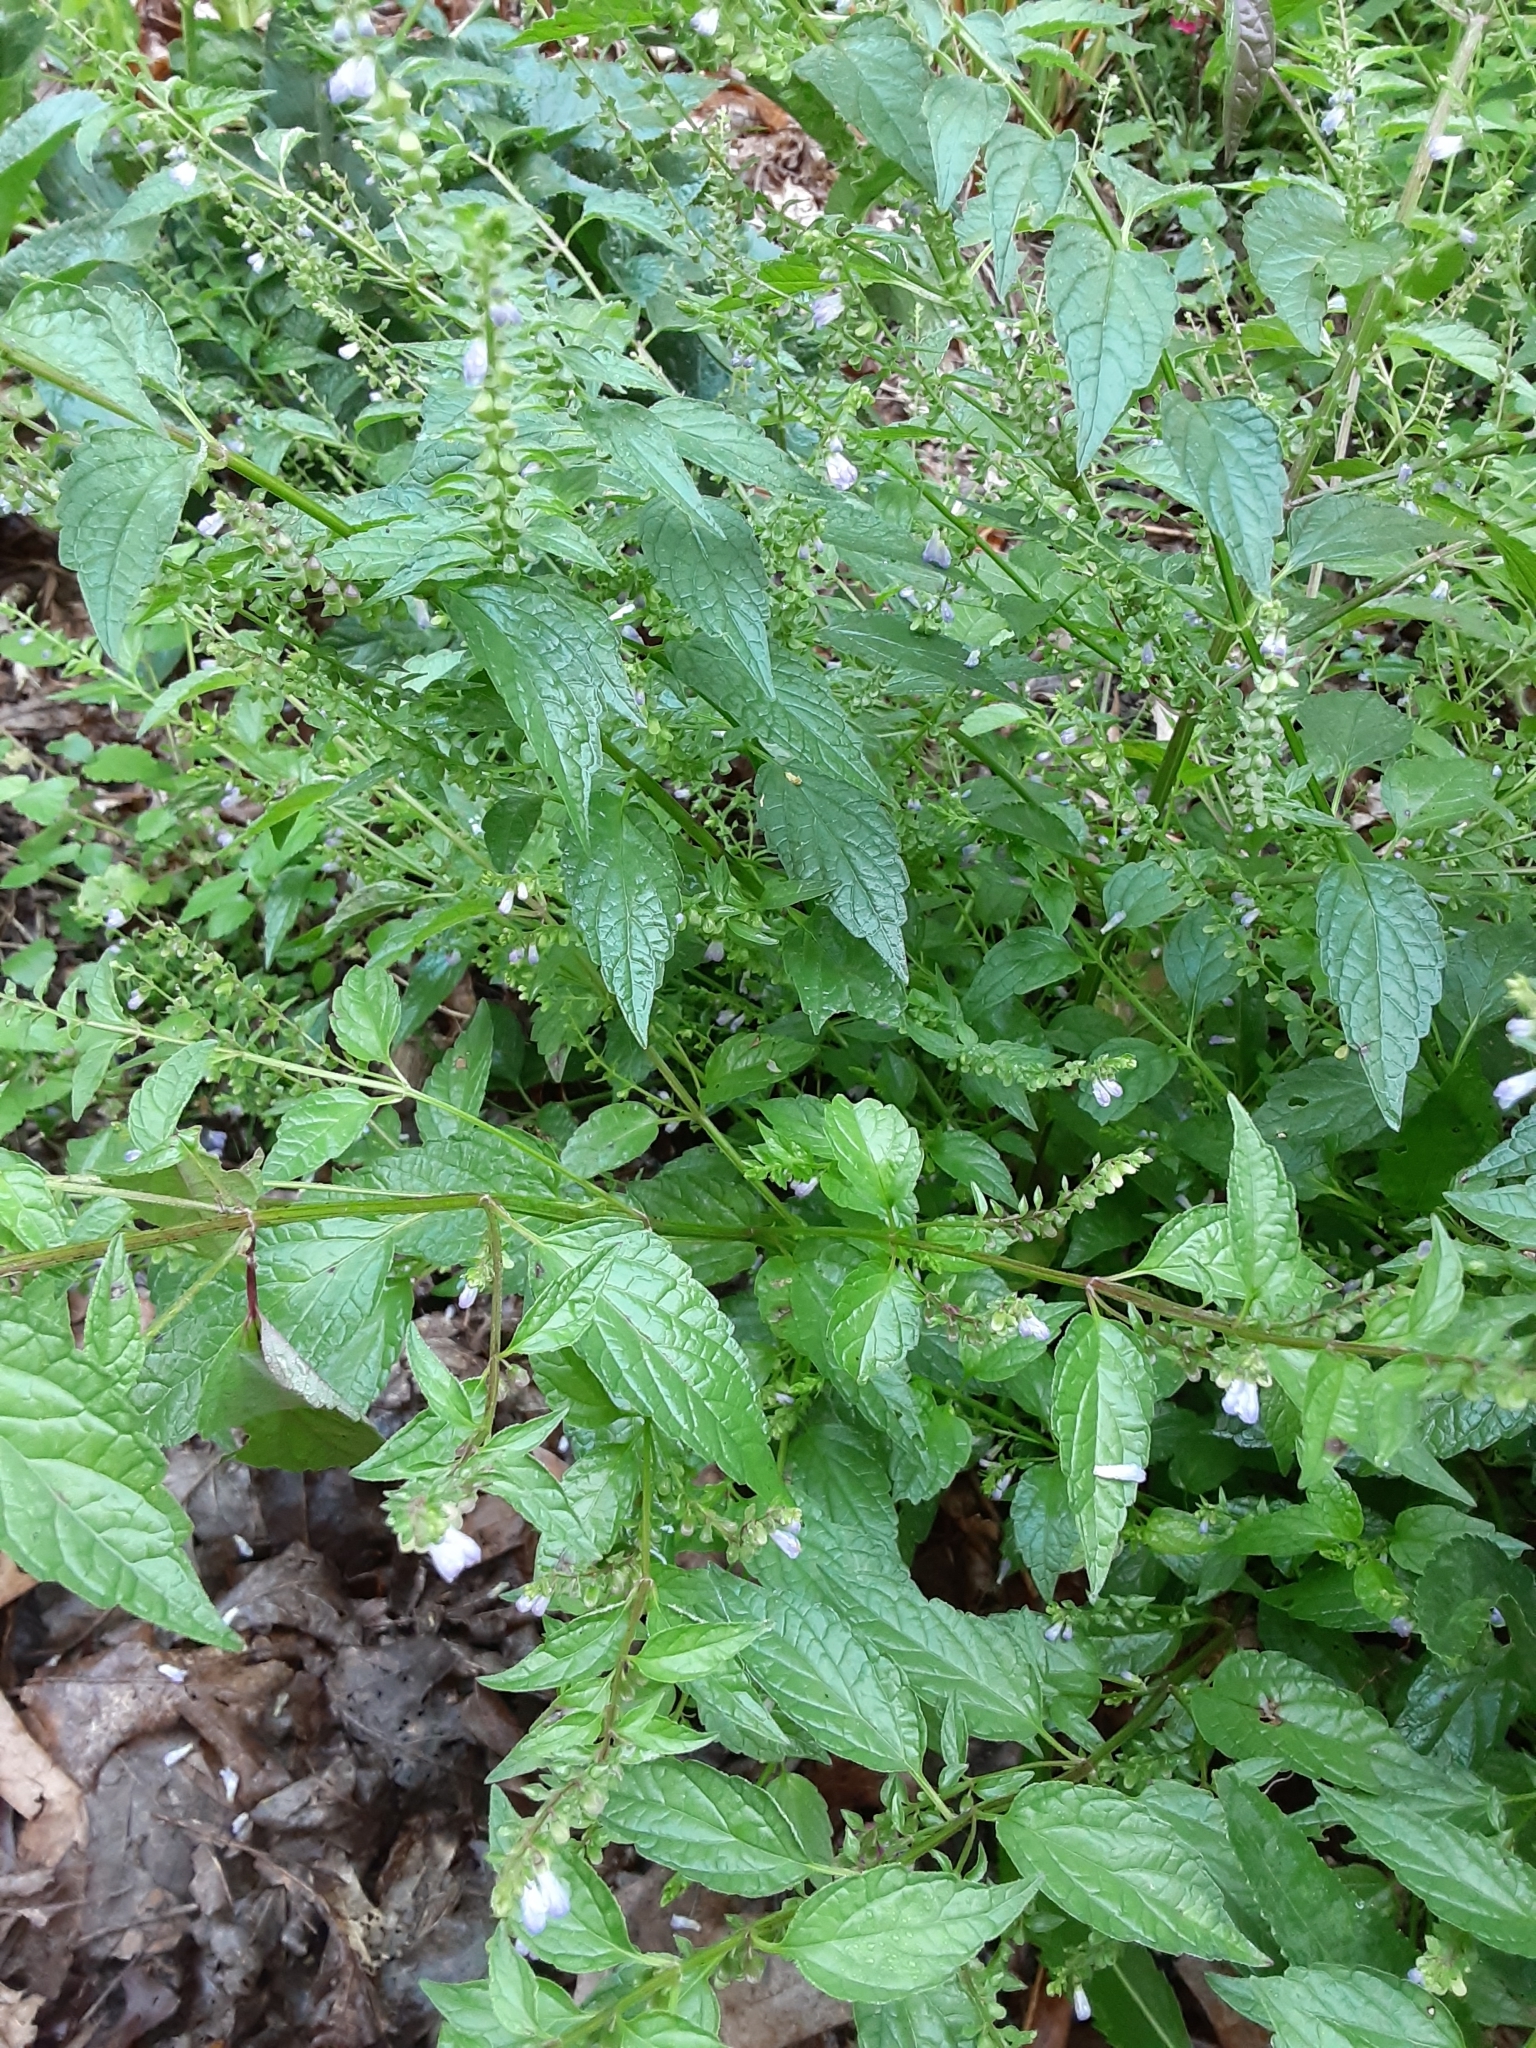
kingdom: Plantae
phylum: Tracheophyta
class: Magnoliopsida
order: Lamiales
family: Lamiaceae
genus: Scutellaria
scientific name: Scutellaria lateriflora
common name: Blue skullcap
